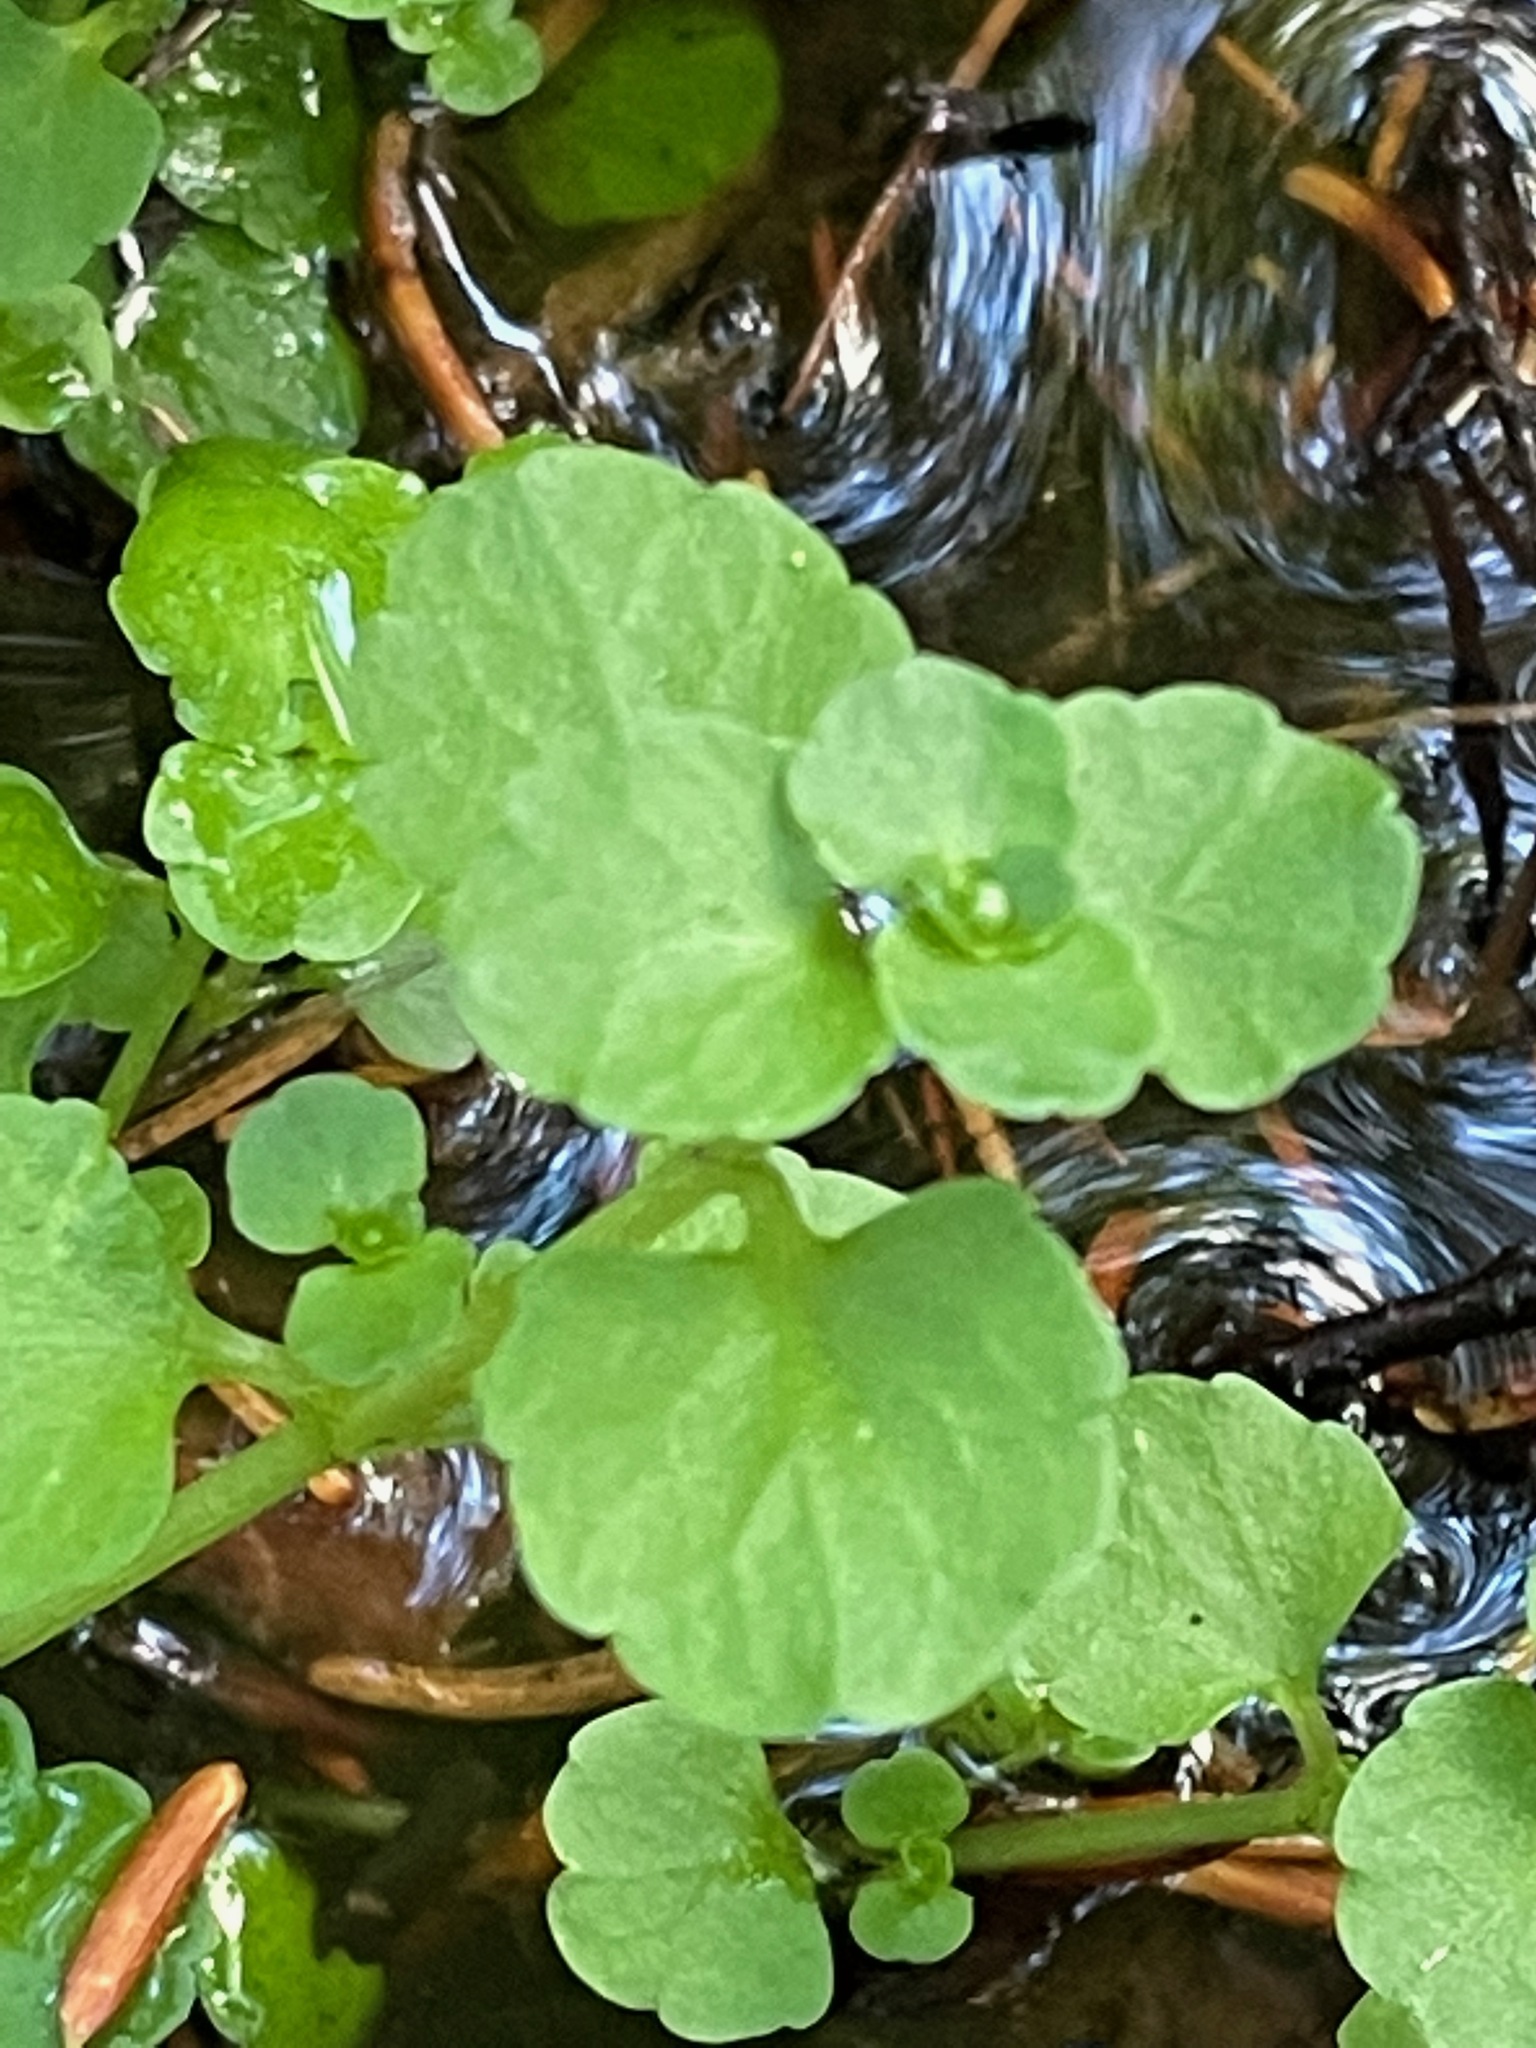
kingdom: Plantae
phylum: Tracheophyta
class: Magnoliopsida
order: Saxifragales
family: Saxifragaceae
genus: Chrysosplenium
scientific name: Chrysosplenium americanum
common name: American golden-saxifrage
